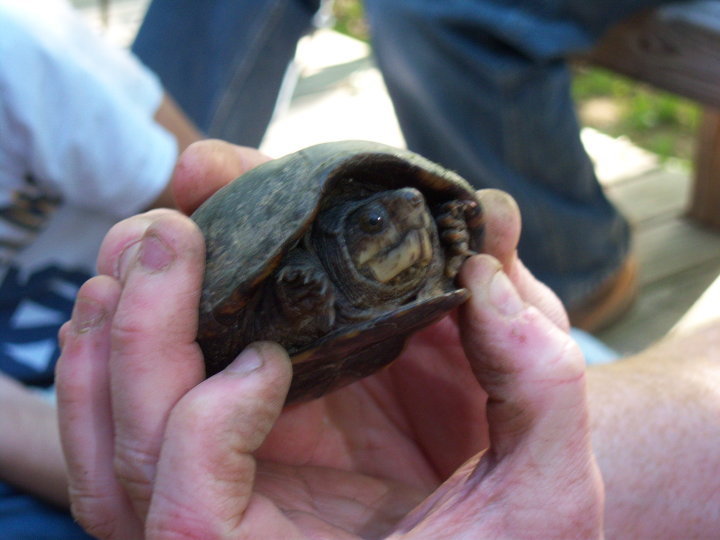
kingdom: Animalia
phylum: Chordata
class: Testudines
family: Kinosternidae
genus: Kinosternon
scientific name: Kinosternon subrubrum
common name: Eastern mud turtle
